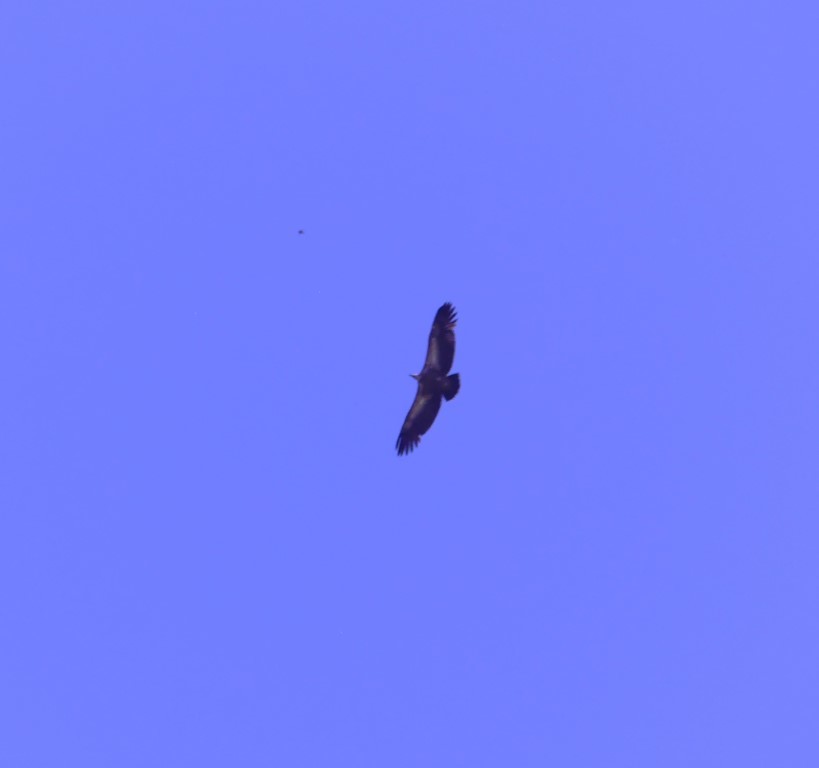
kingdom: Animalia
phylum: Chordata
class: Aves
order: Accipitriformes
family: Accipitridae
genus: Gyps
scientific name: Gyps fulvus
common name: Griffon vulture
